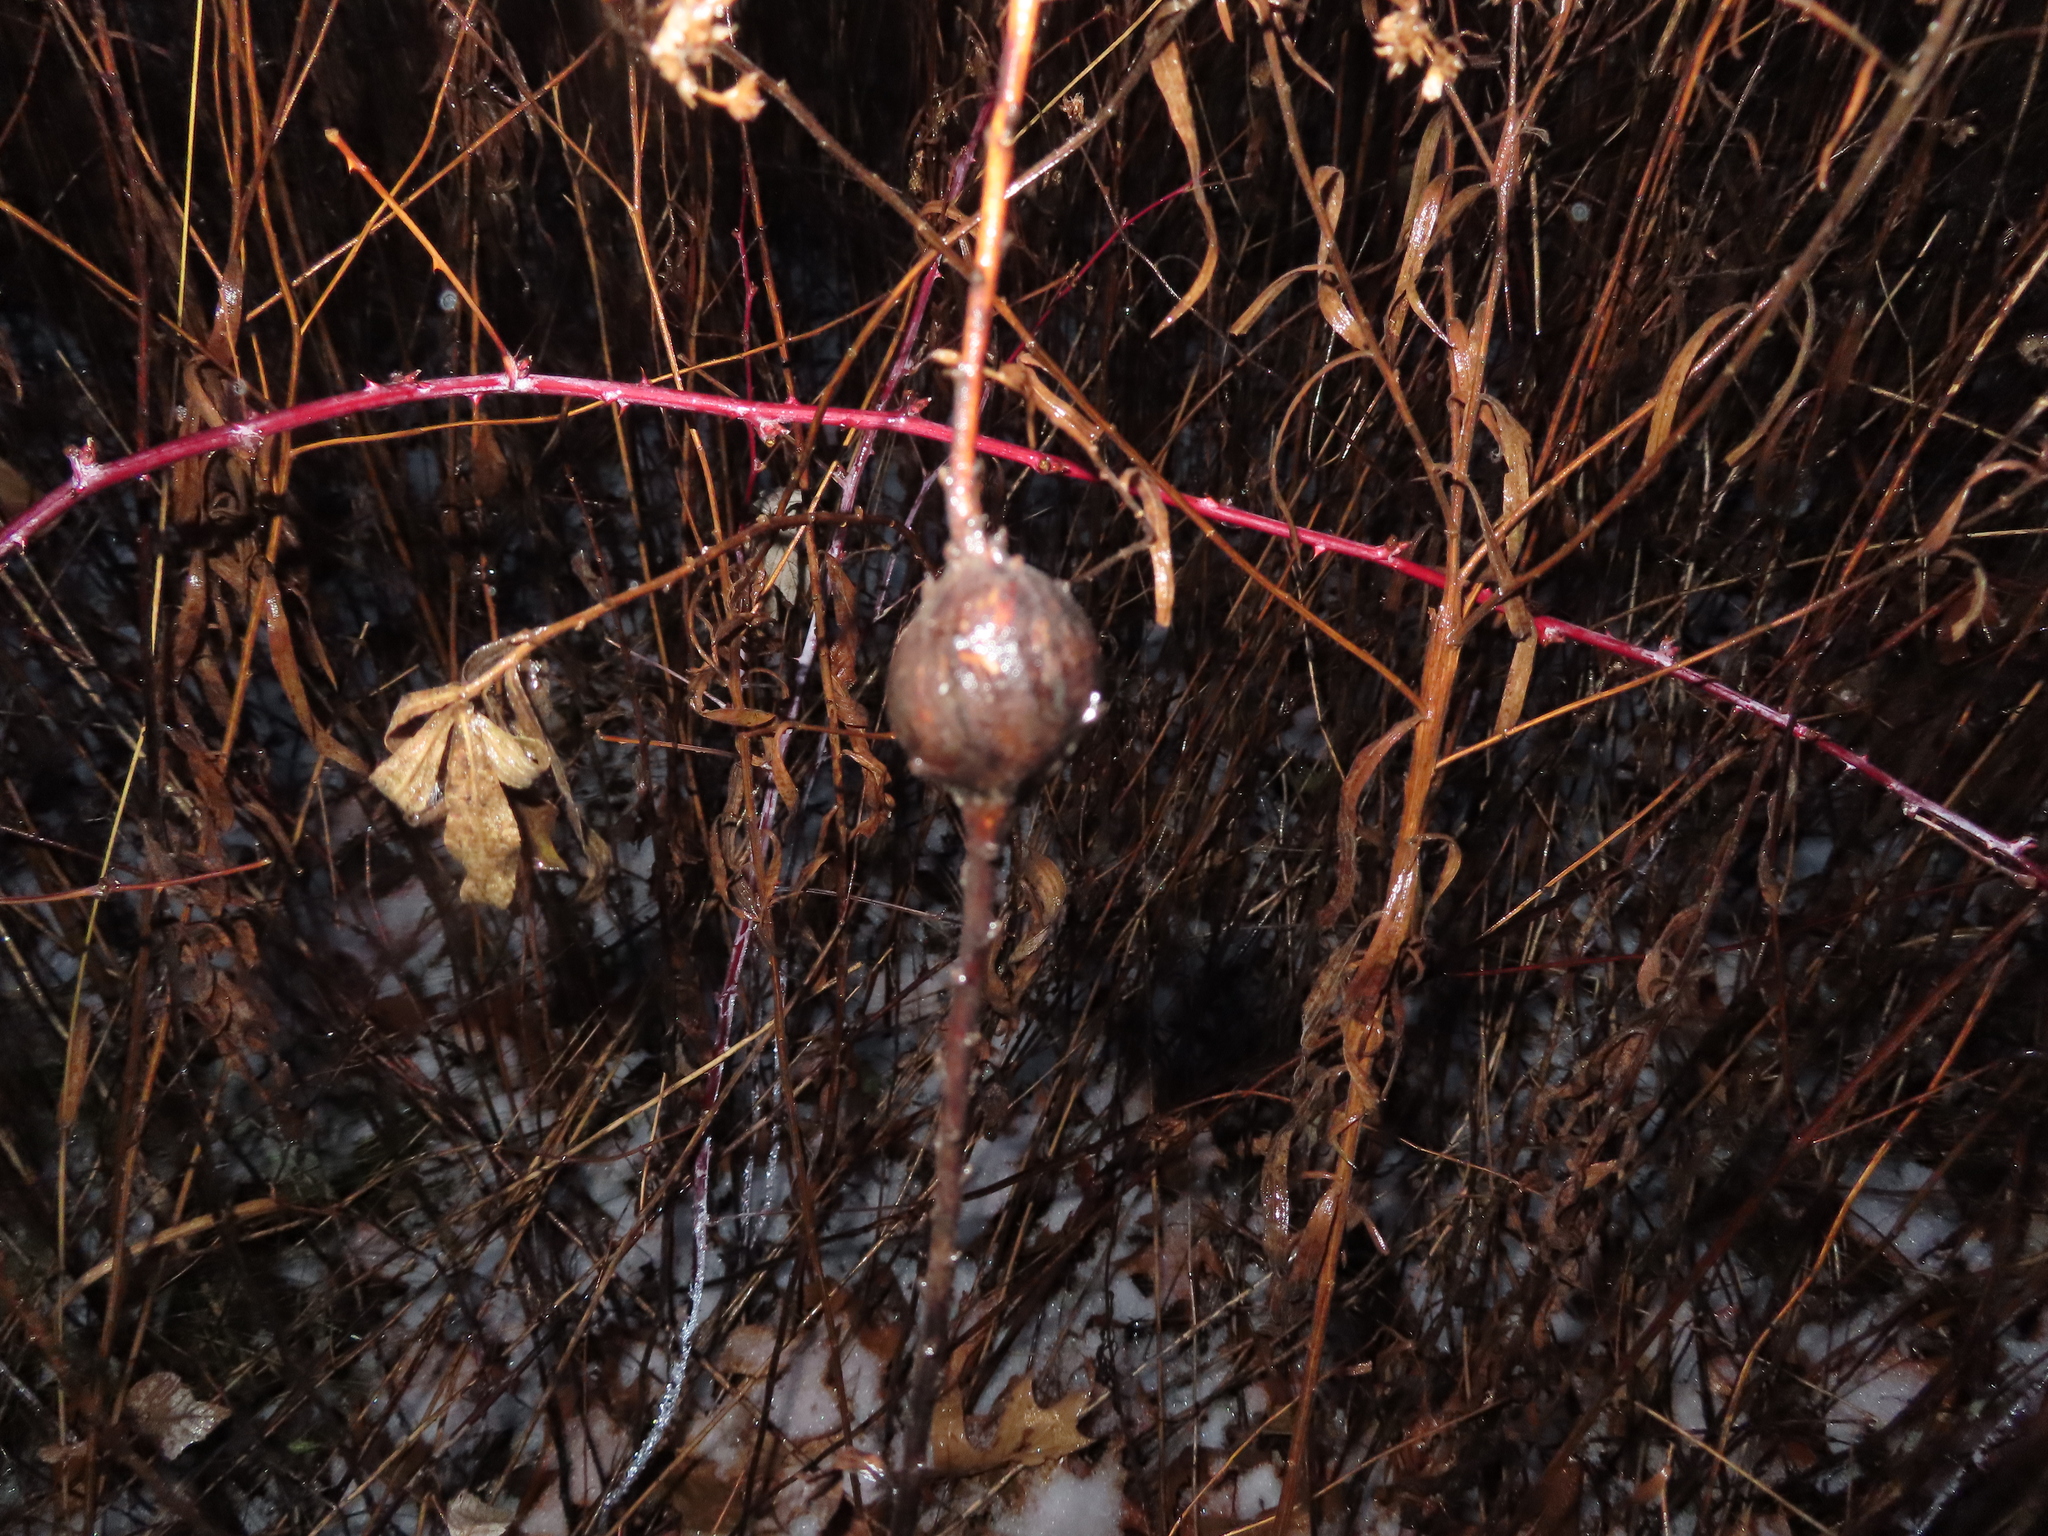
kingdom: Animalia
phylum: Arthropoda
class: Insecta
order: Diptera
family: Tephritidae
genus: Eurosta
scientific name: Eurosta solidaginis
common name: Goldenrod gall fly
